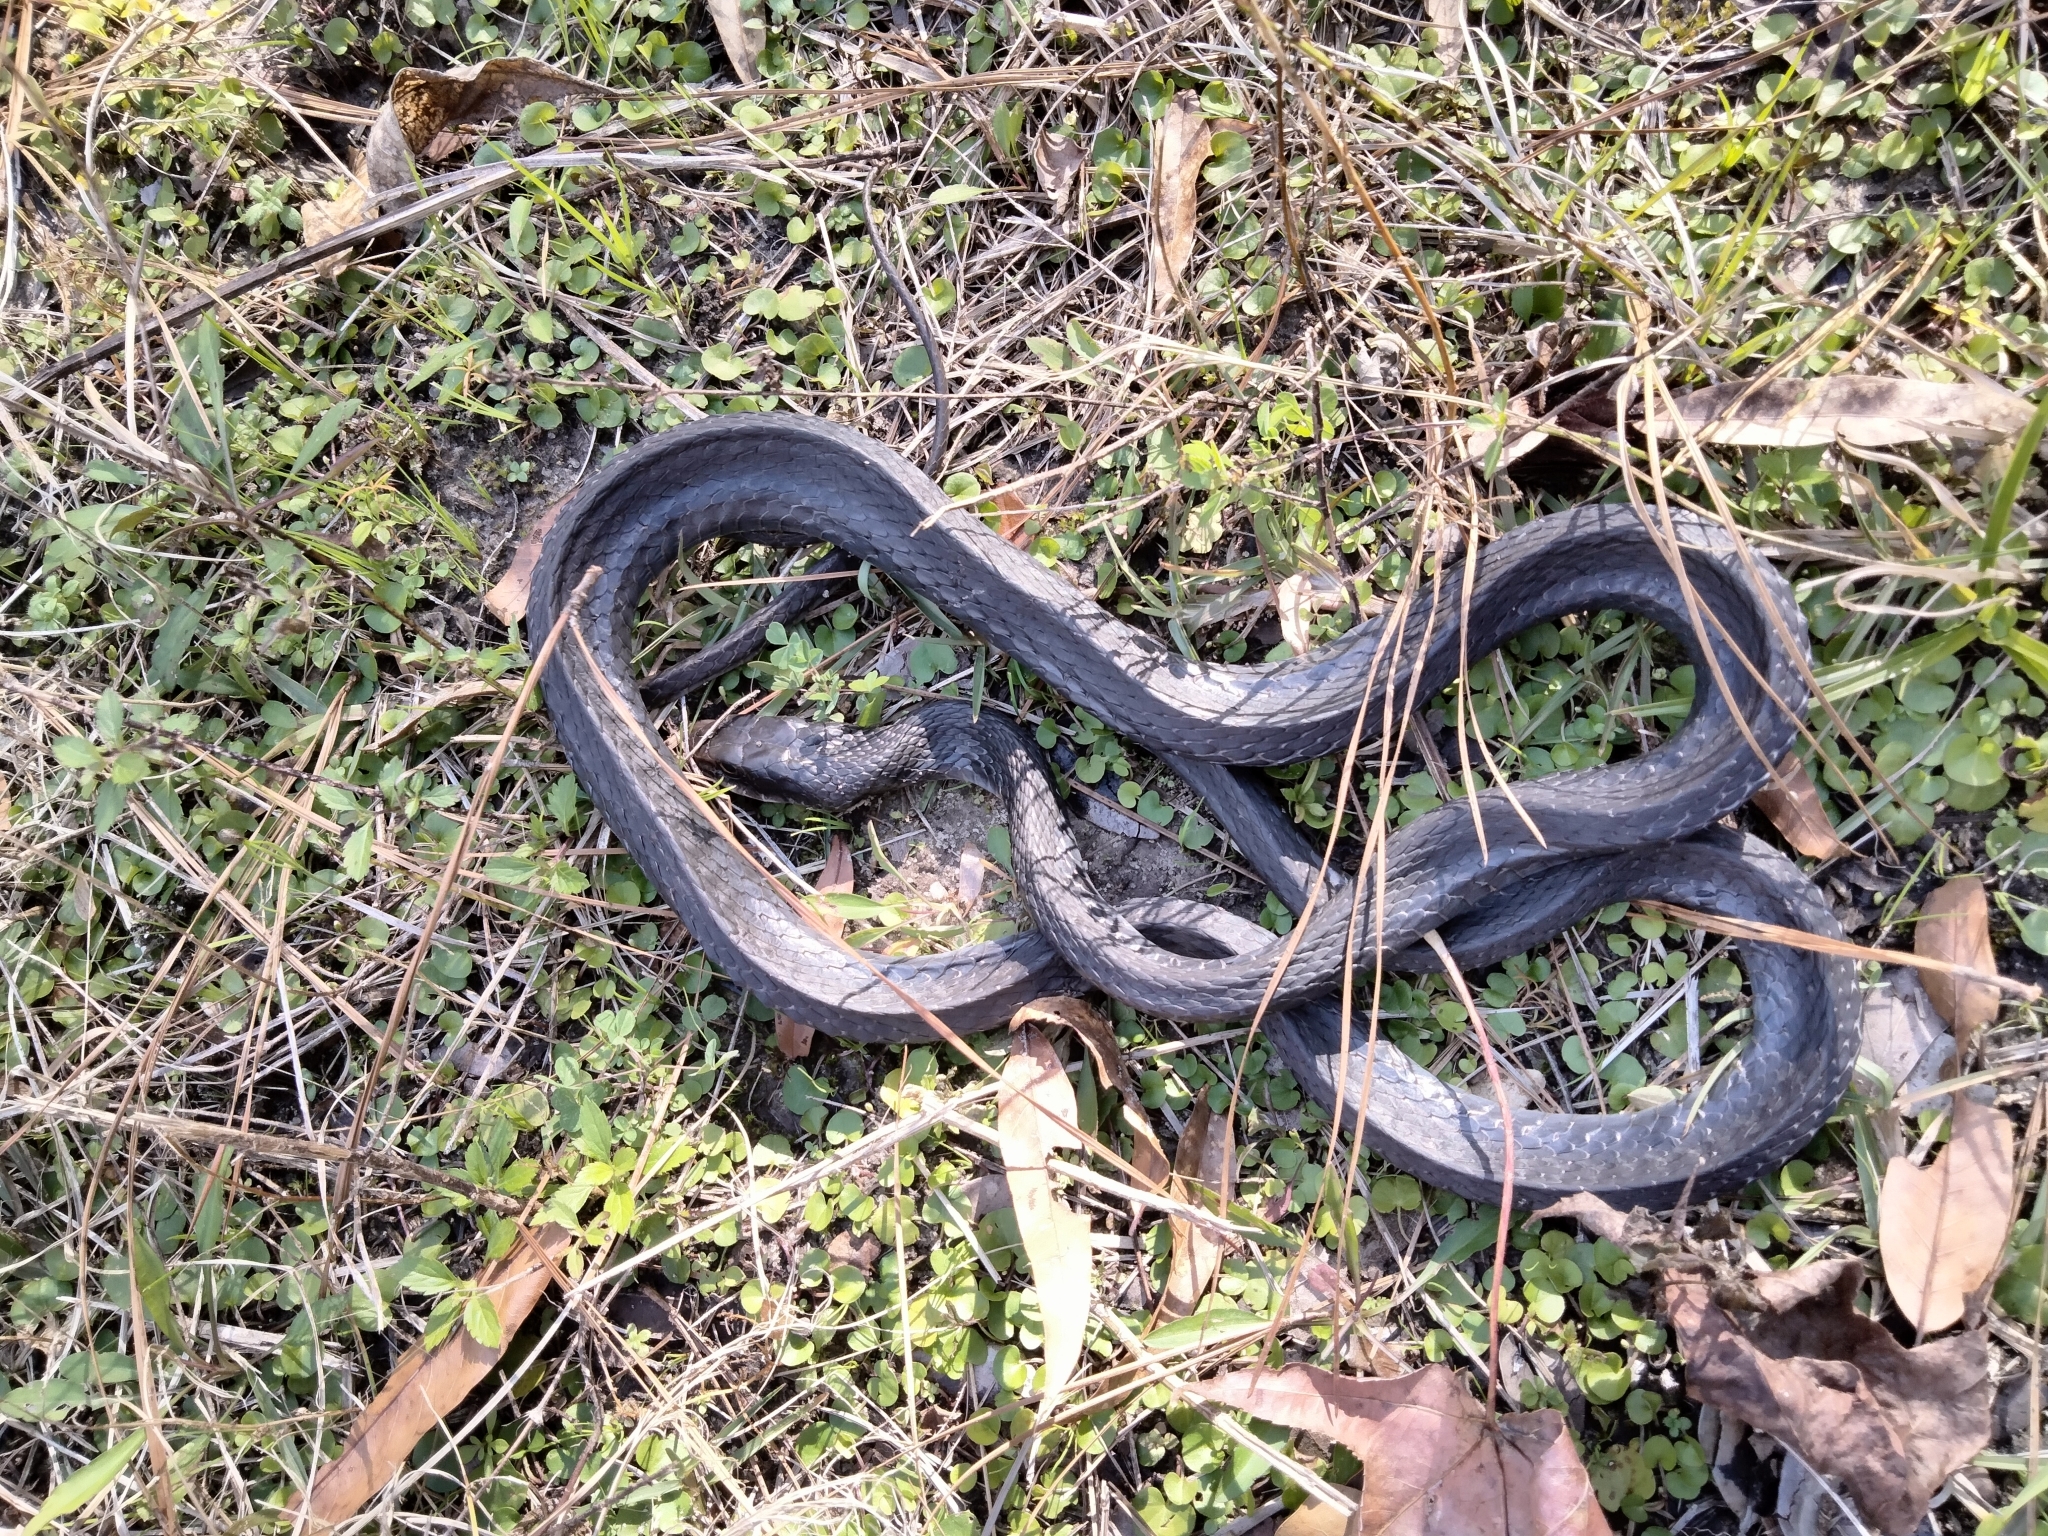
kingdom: Animalia
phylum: Chordata
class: Squamata
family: Colubridae
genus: Coluber
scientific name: Coluber constrictor
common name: Eastern racer
